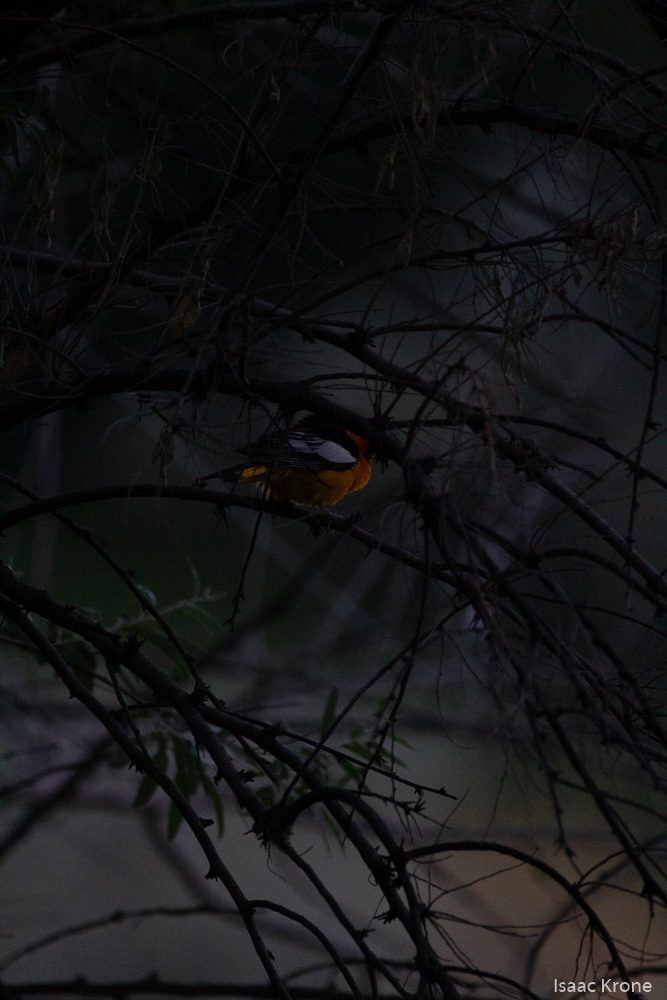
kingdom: Animalia
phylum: Chordata
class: Aves
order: Passeriformes
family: Icteridae
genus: Icterus
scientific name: Icterus bullockii
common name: Bullock's oriole
